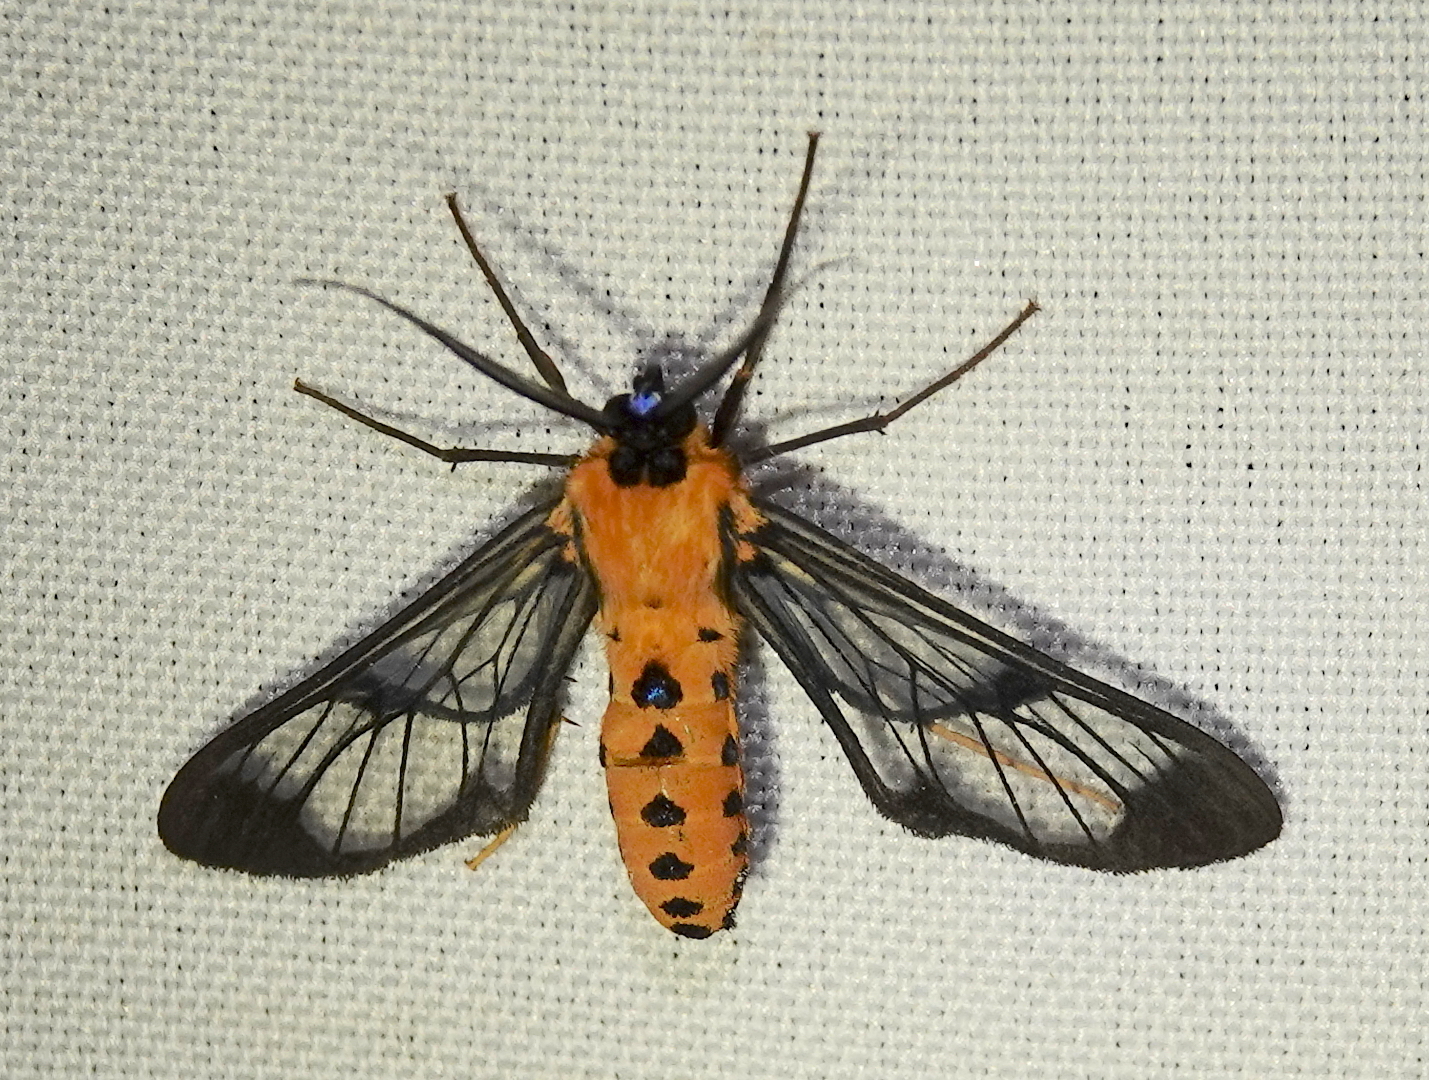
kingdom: Animalia
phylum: Arthropoda
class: Insecta
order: Lepidoptera
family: Erebidae
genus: Sarosa
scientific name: Sarosa helotes
